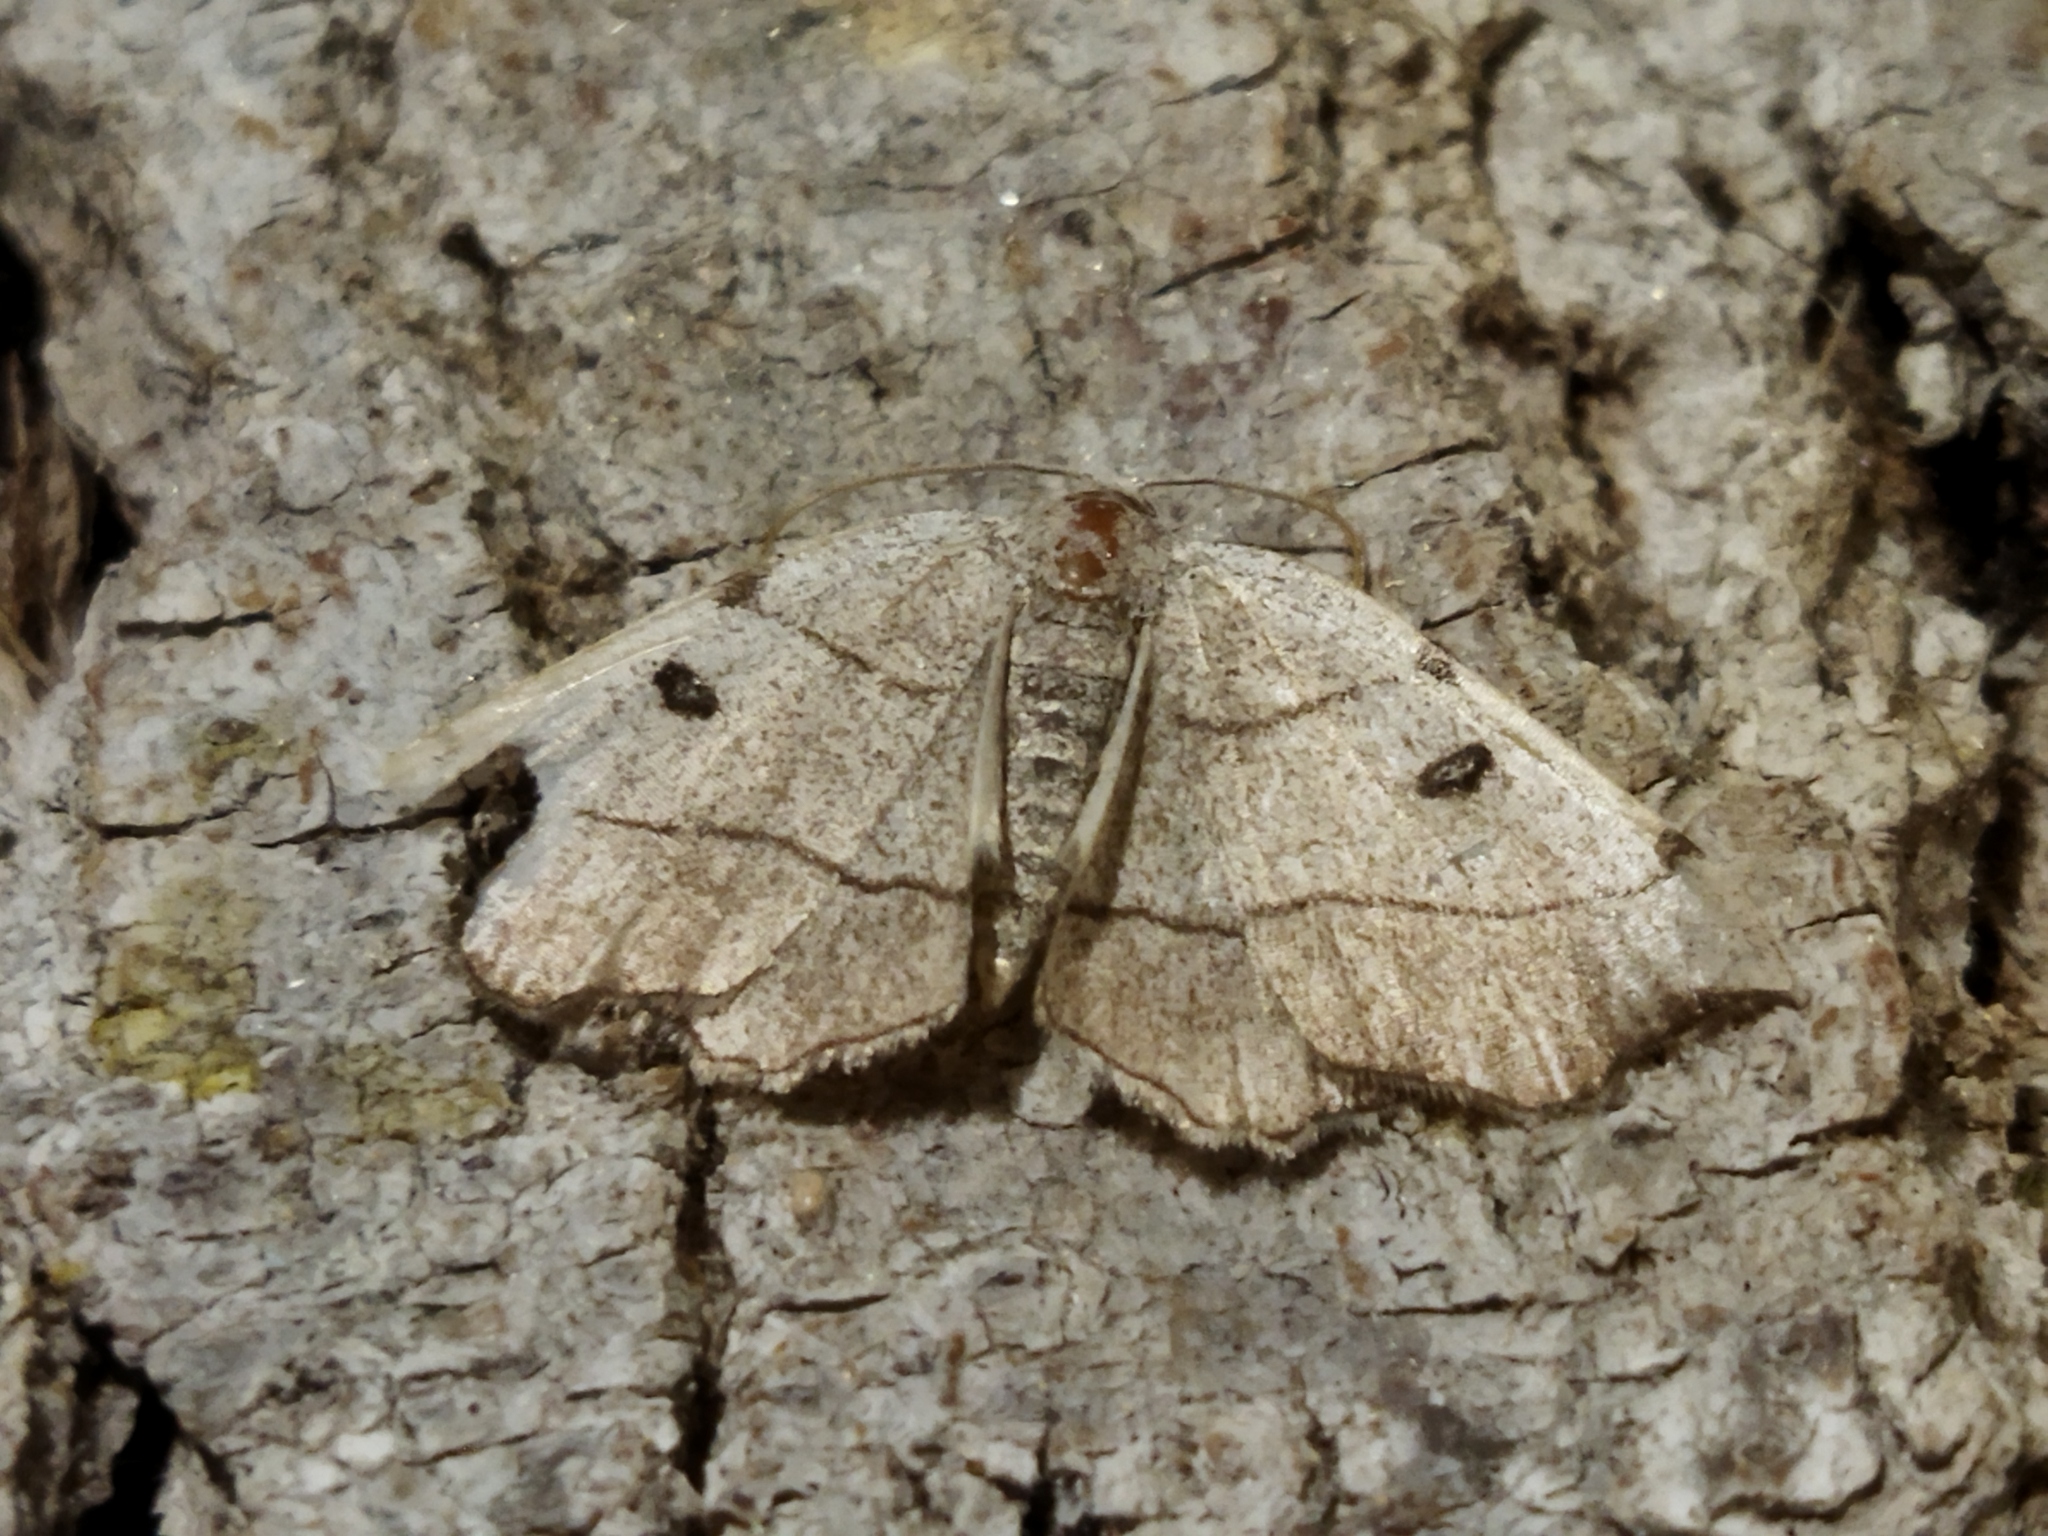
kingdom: Animalia
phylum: Arthropoda
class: Insecta
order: Lepidoptera
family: Geometridae
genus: Eilicrinia
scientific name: Eilicrinia trinotata
